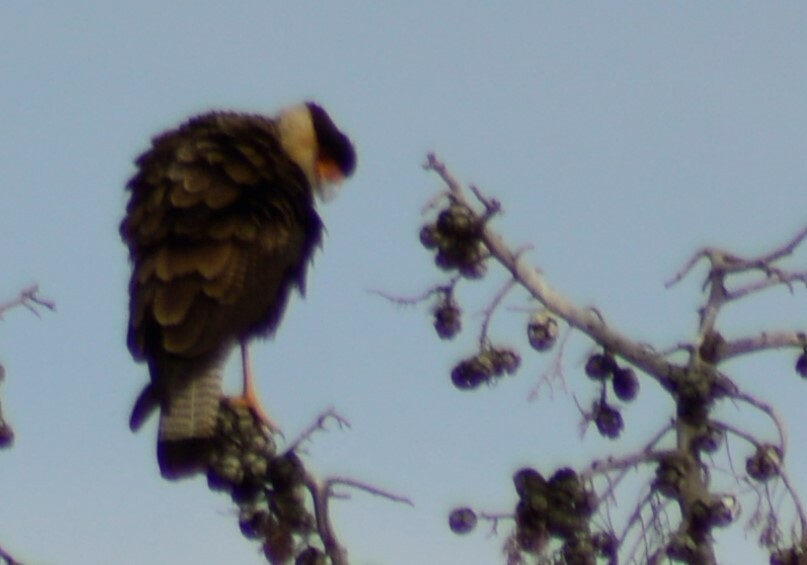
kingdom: Animalia
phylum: Chordata
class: Aves
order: Falconiformes
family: Falconidae
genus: Caracara
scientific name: Caracara plancus
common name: Southern caracara
